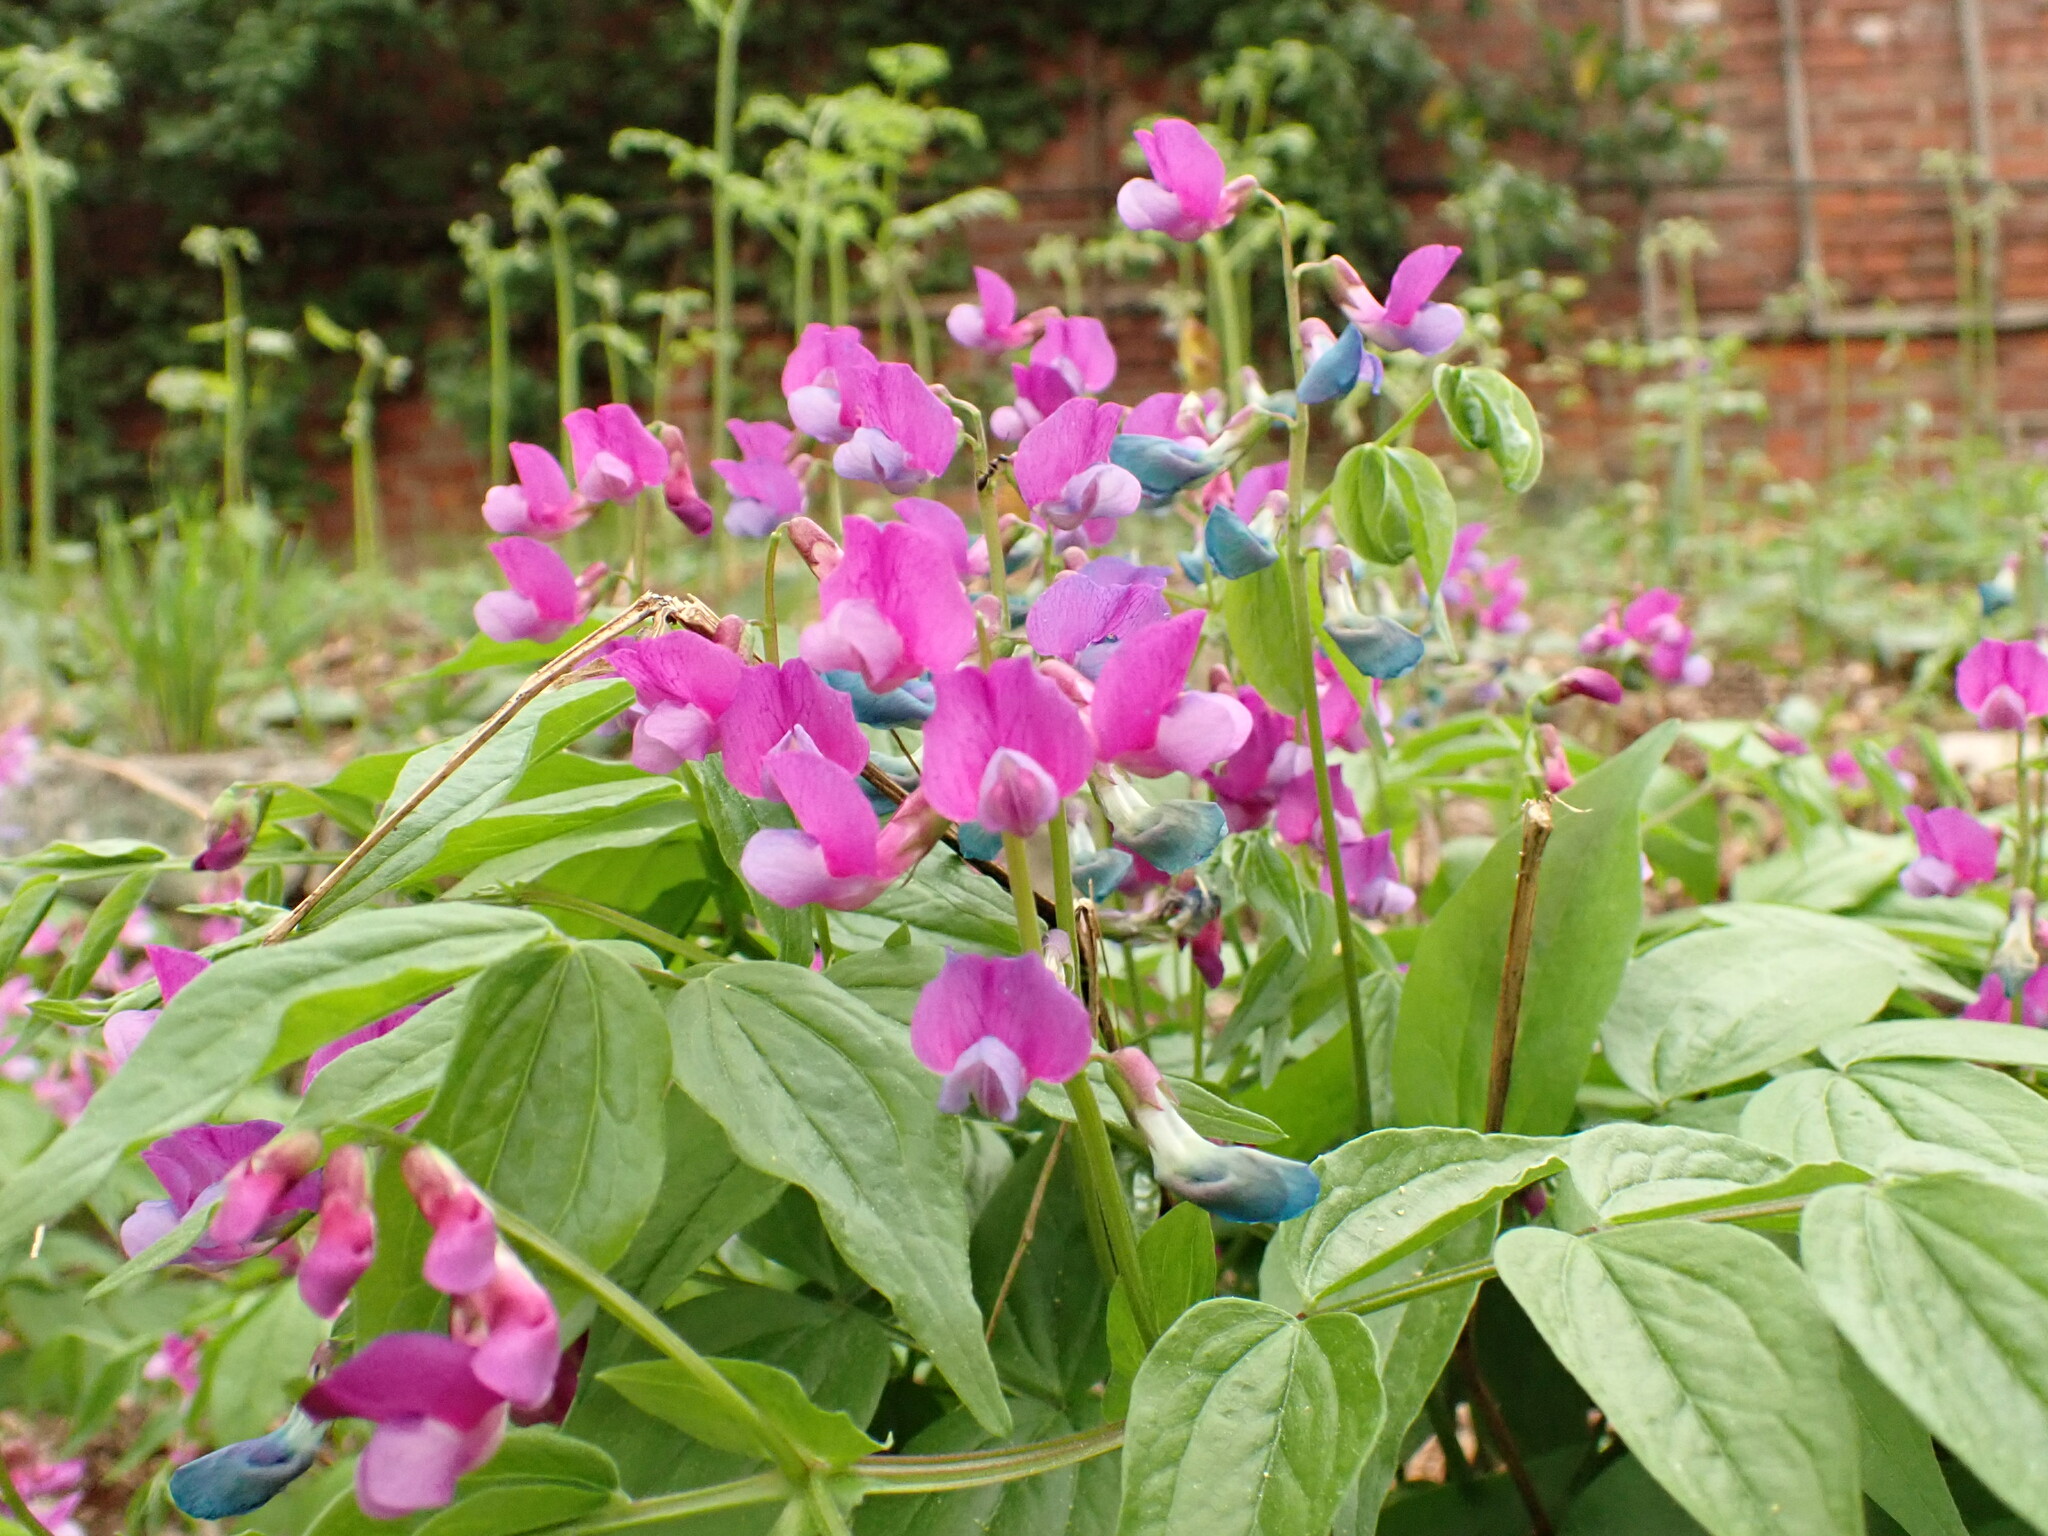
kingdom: Plantae
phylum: Tracheophyta
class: Magnoliopsida
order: Fabales
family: Fabaceae
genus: Lathyrus
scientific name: Lathyrus vernus
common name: Spring pea
